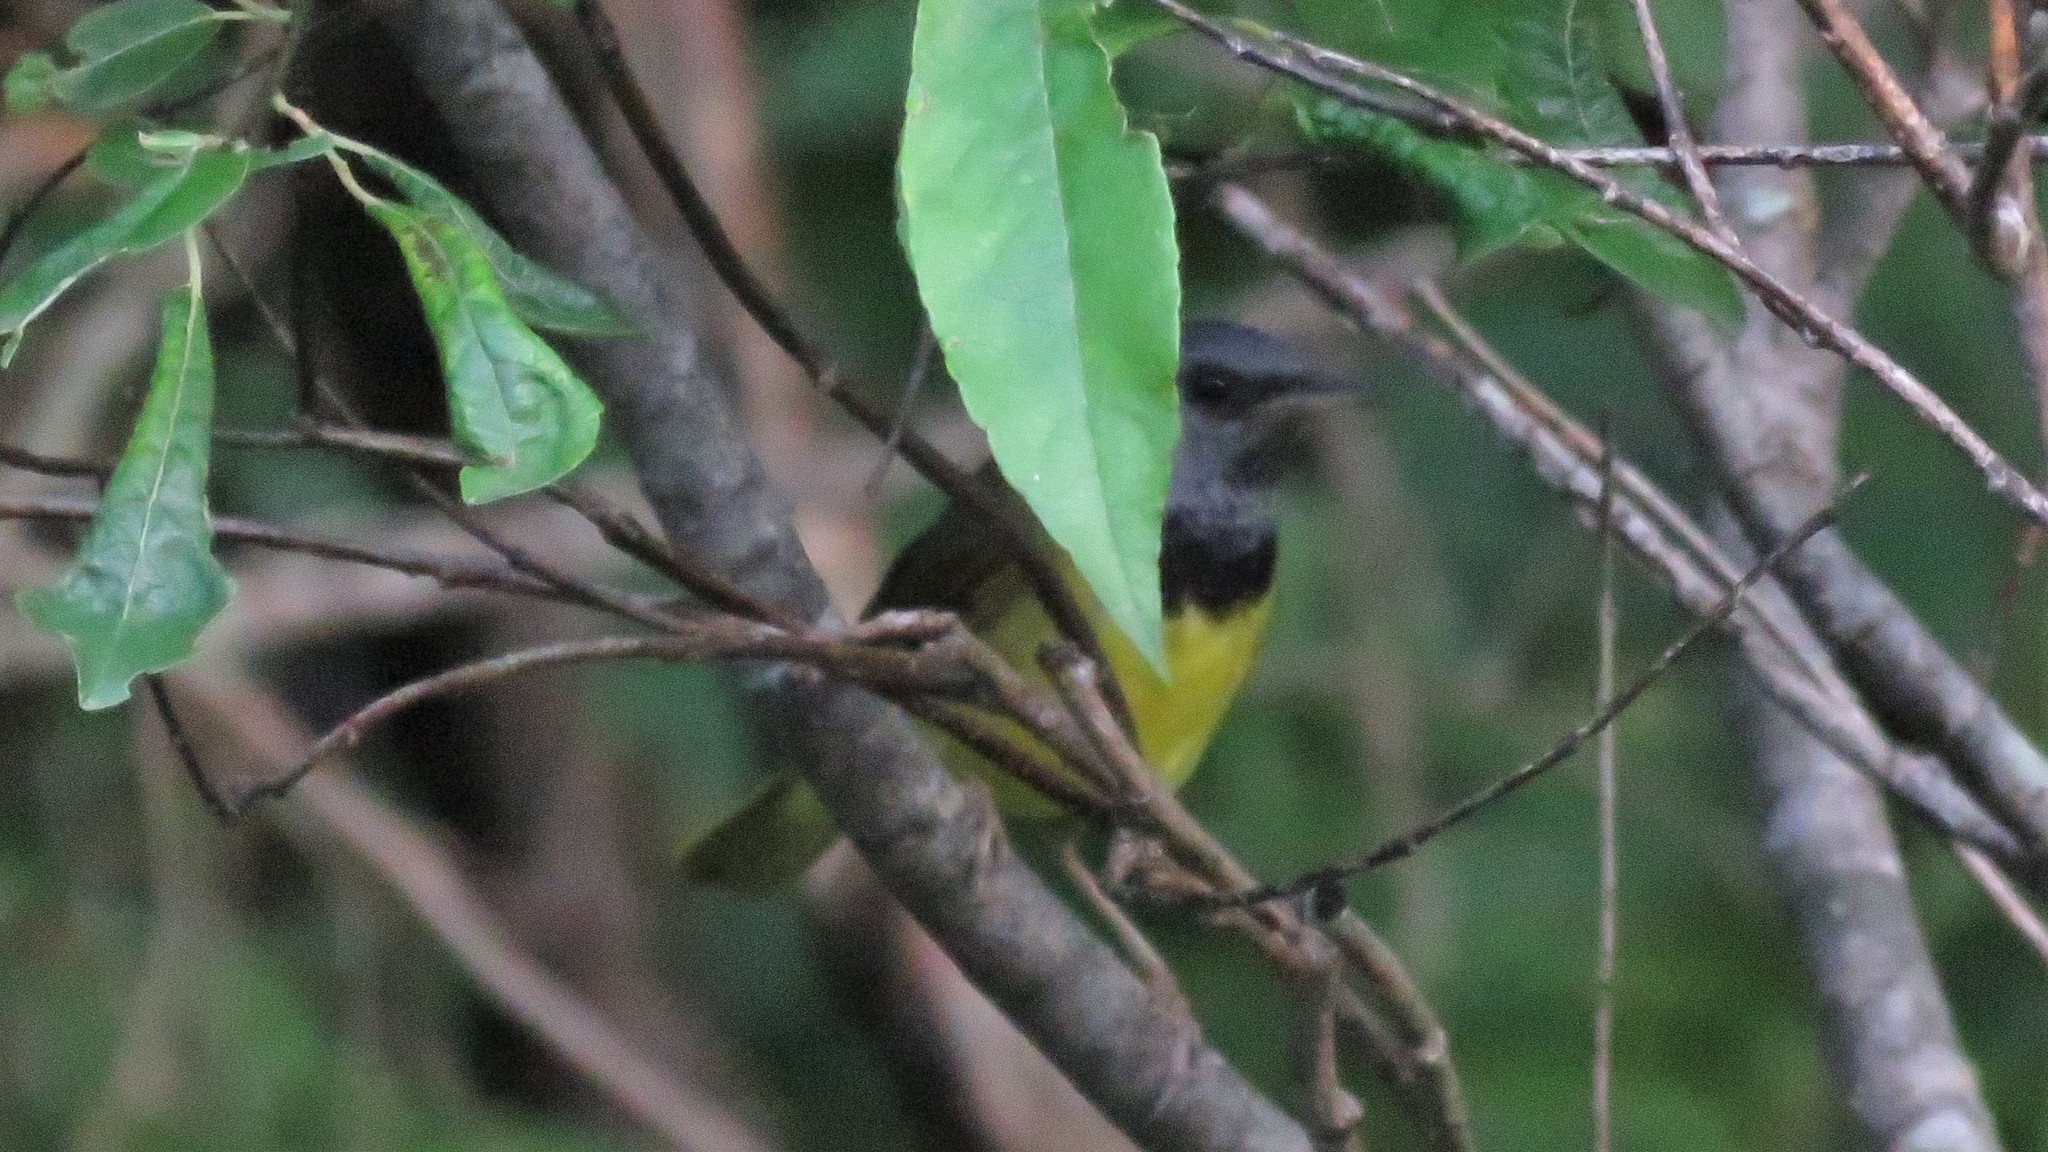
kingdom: Animalia
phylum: Chordata
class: Aves
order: Passeriformes
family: Parulidae
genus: Geothlypis
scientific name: Geothlypis philadelphia
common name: Mourning warbler
